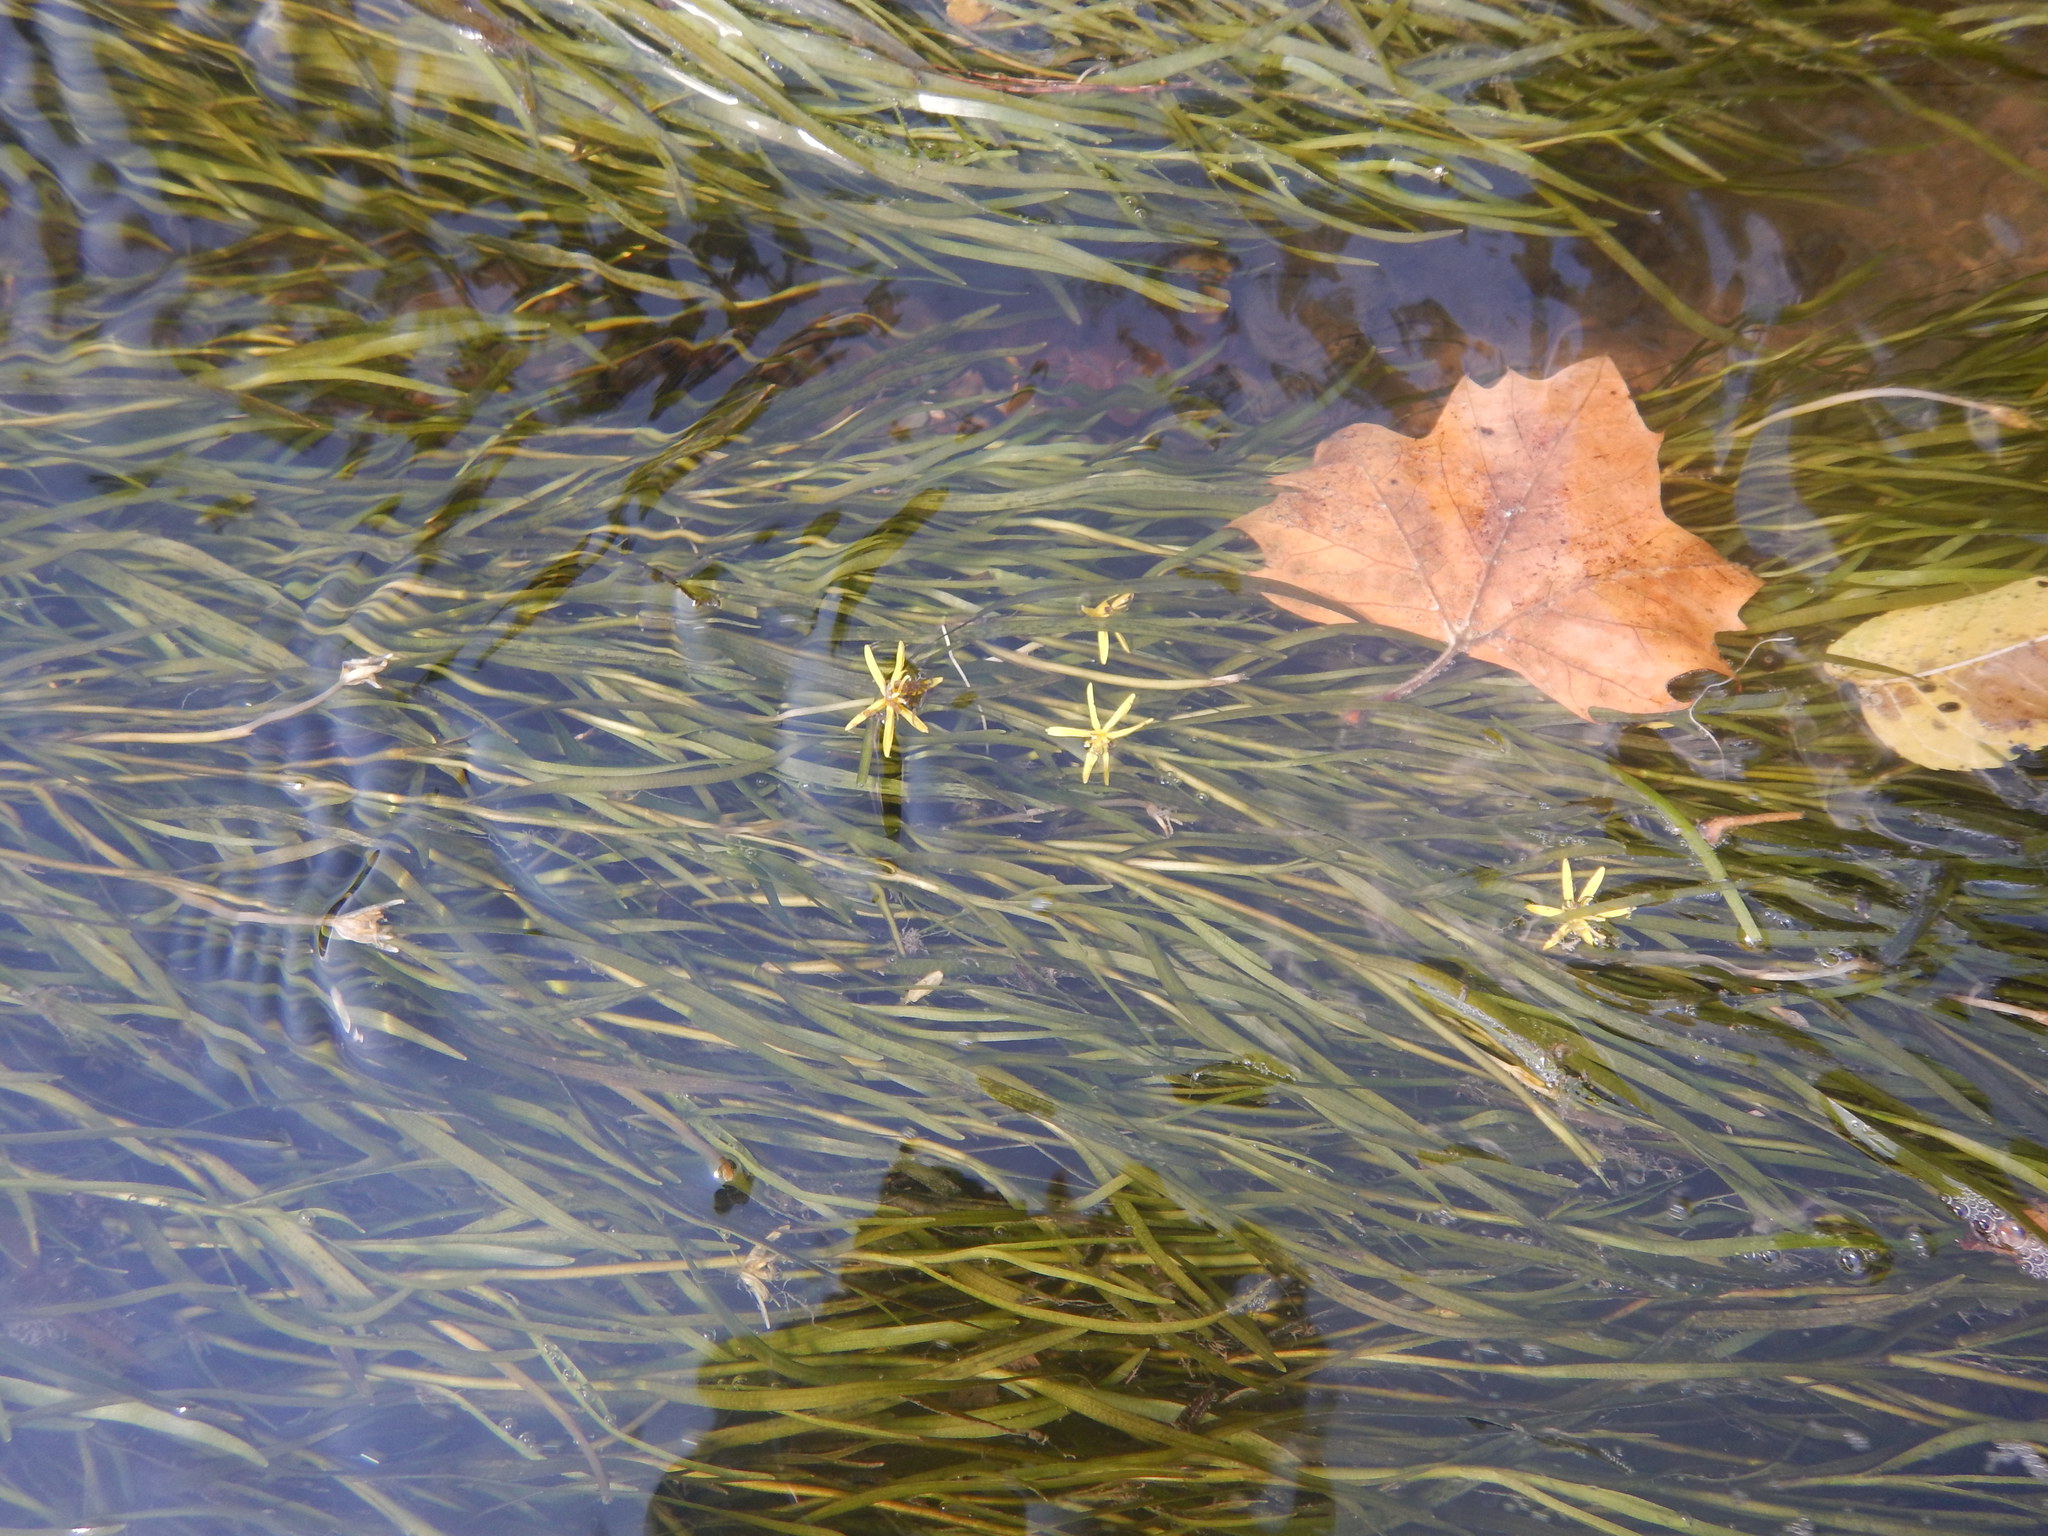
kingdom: Plantae
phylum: Tracheophyta
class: Liliopsida
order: Commelinales
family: Pontederiaceae
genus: Heteranthera
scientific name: Heteranthera dubia
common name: Grass-leaved mud plantain
